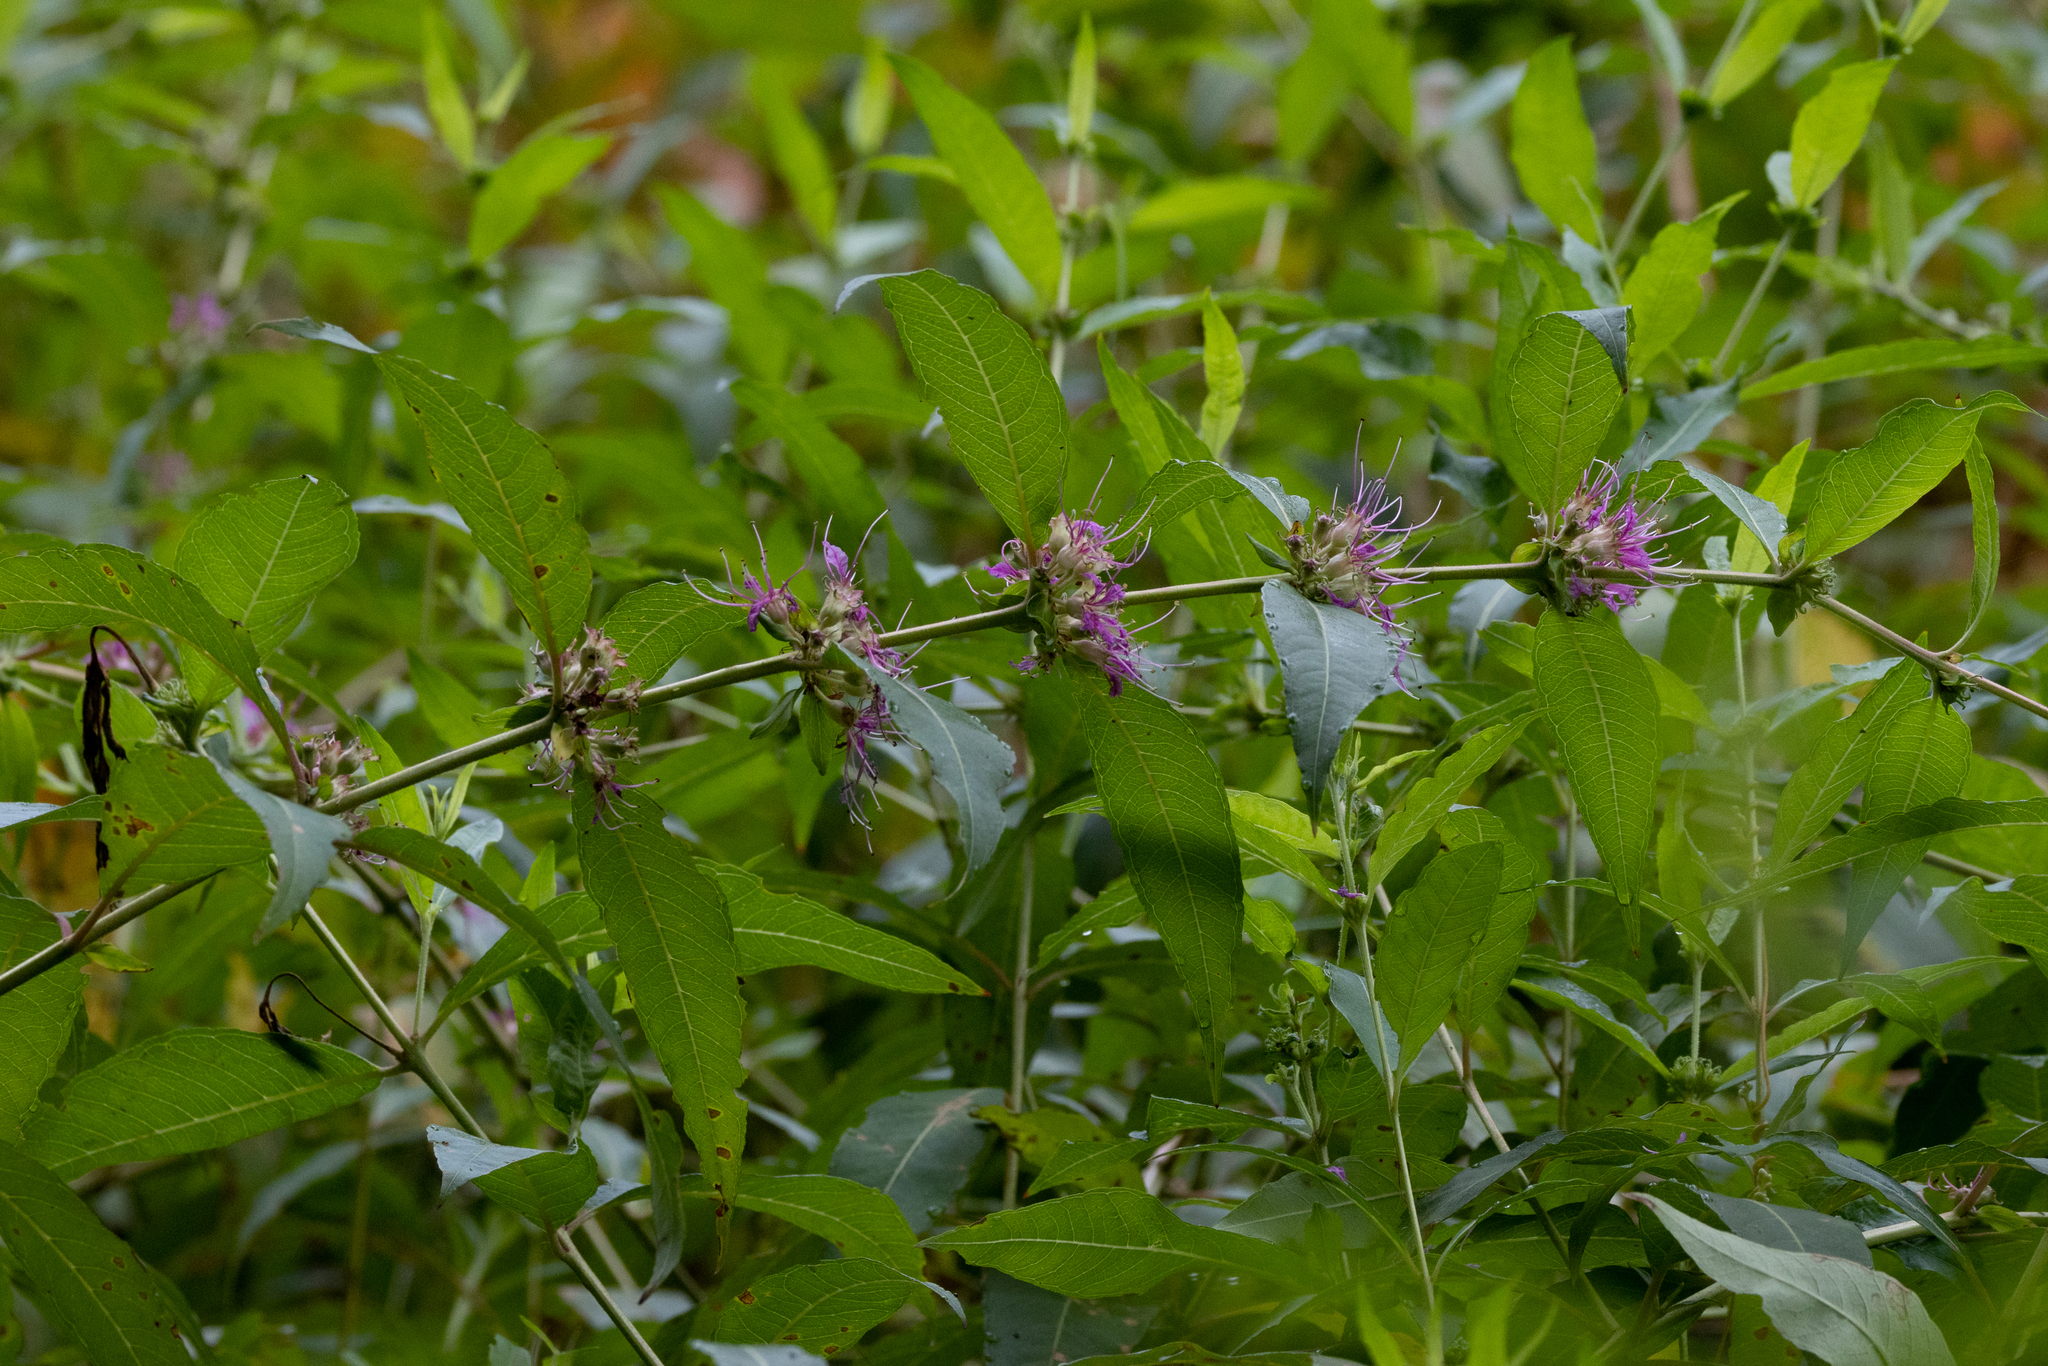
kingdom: Plantae
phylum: Tracheophyta
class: Magnoliopsida
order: Myrtales
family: Lythraceae
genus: Decodon
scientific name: Decodon verticillatus
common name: Hairy swamp loosestrife
